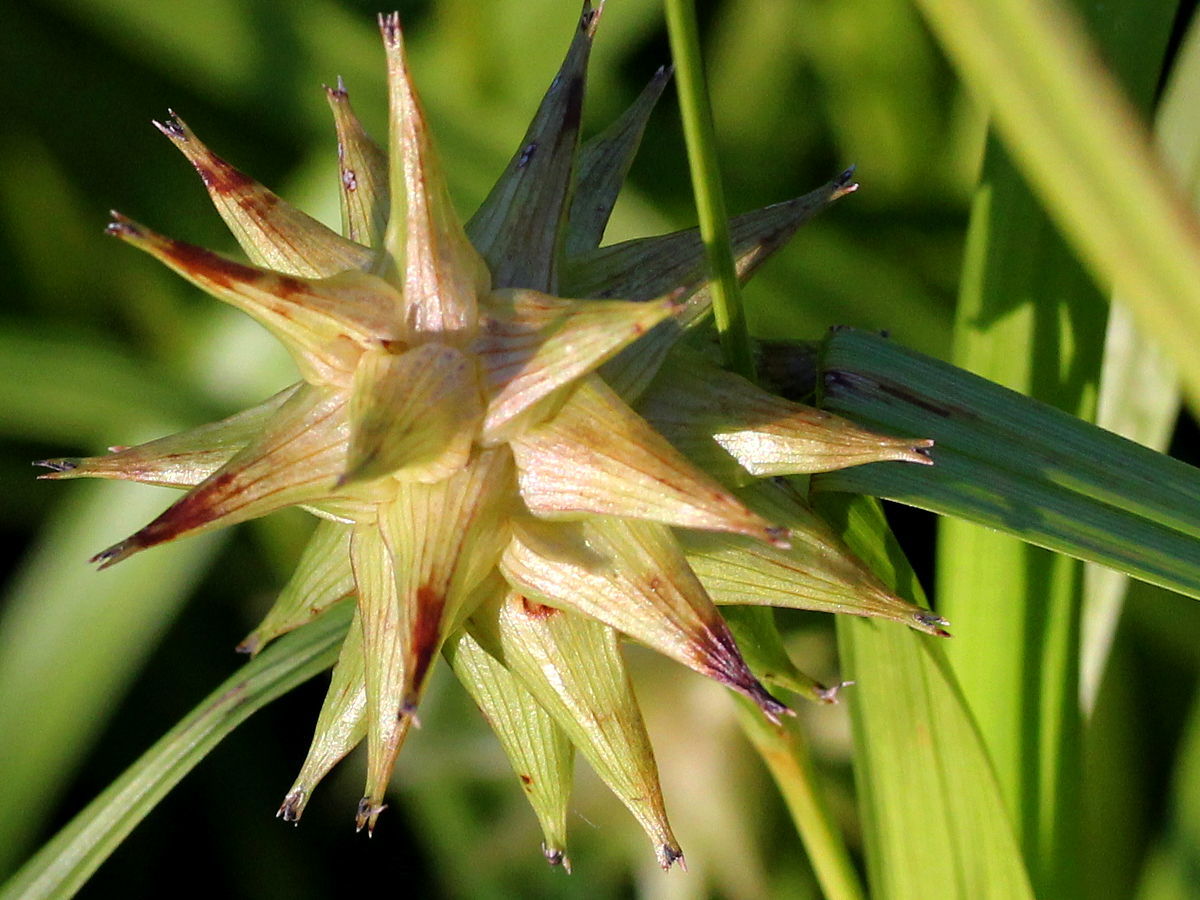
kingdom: Plantae
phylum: Tracheophyta
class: Liliopsida
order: Poales
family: Cyperaceae
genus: Carex
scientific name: Carex grayi
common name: Asa gray's sedge
